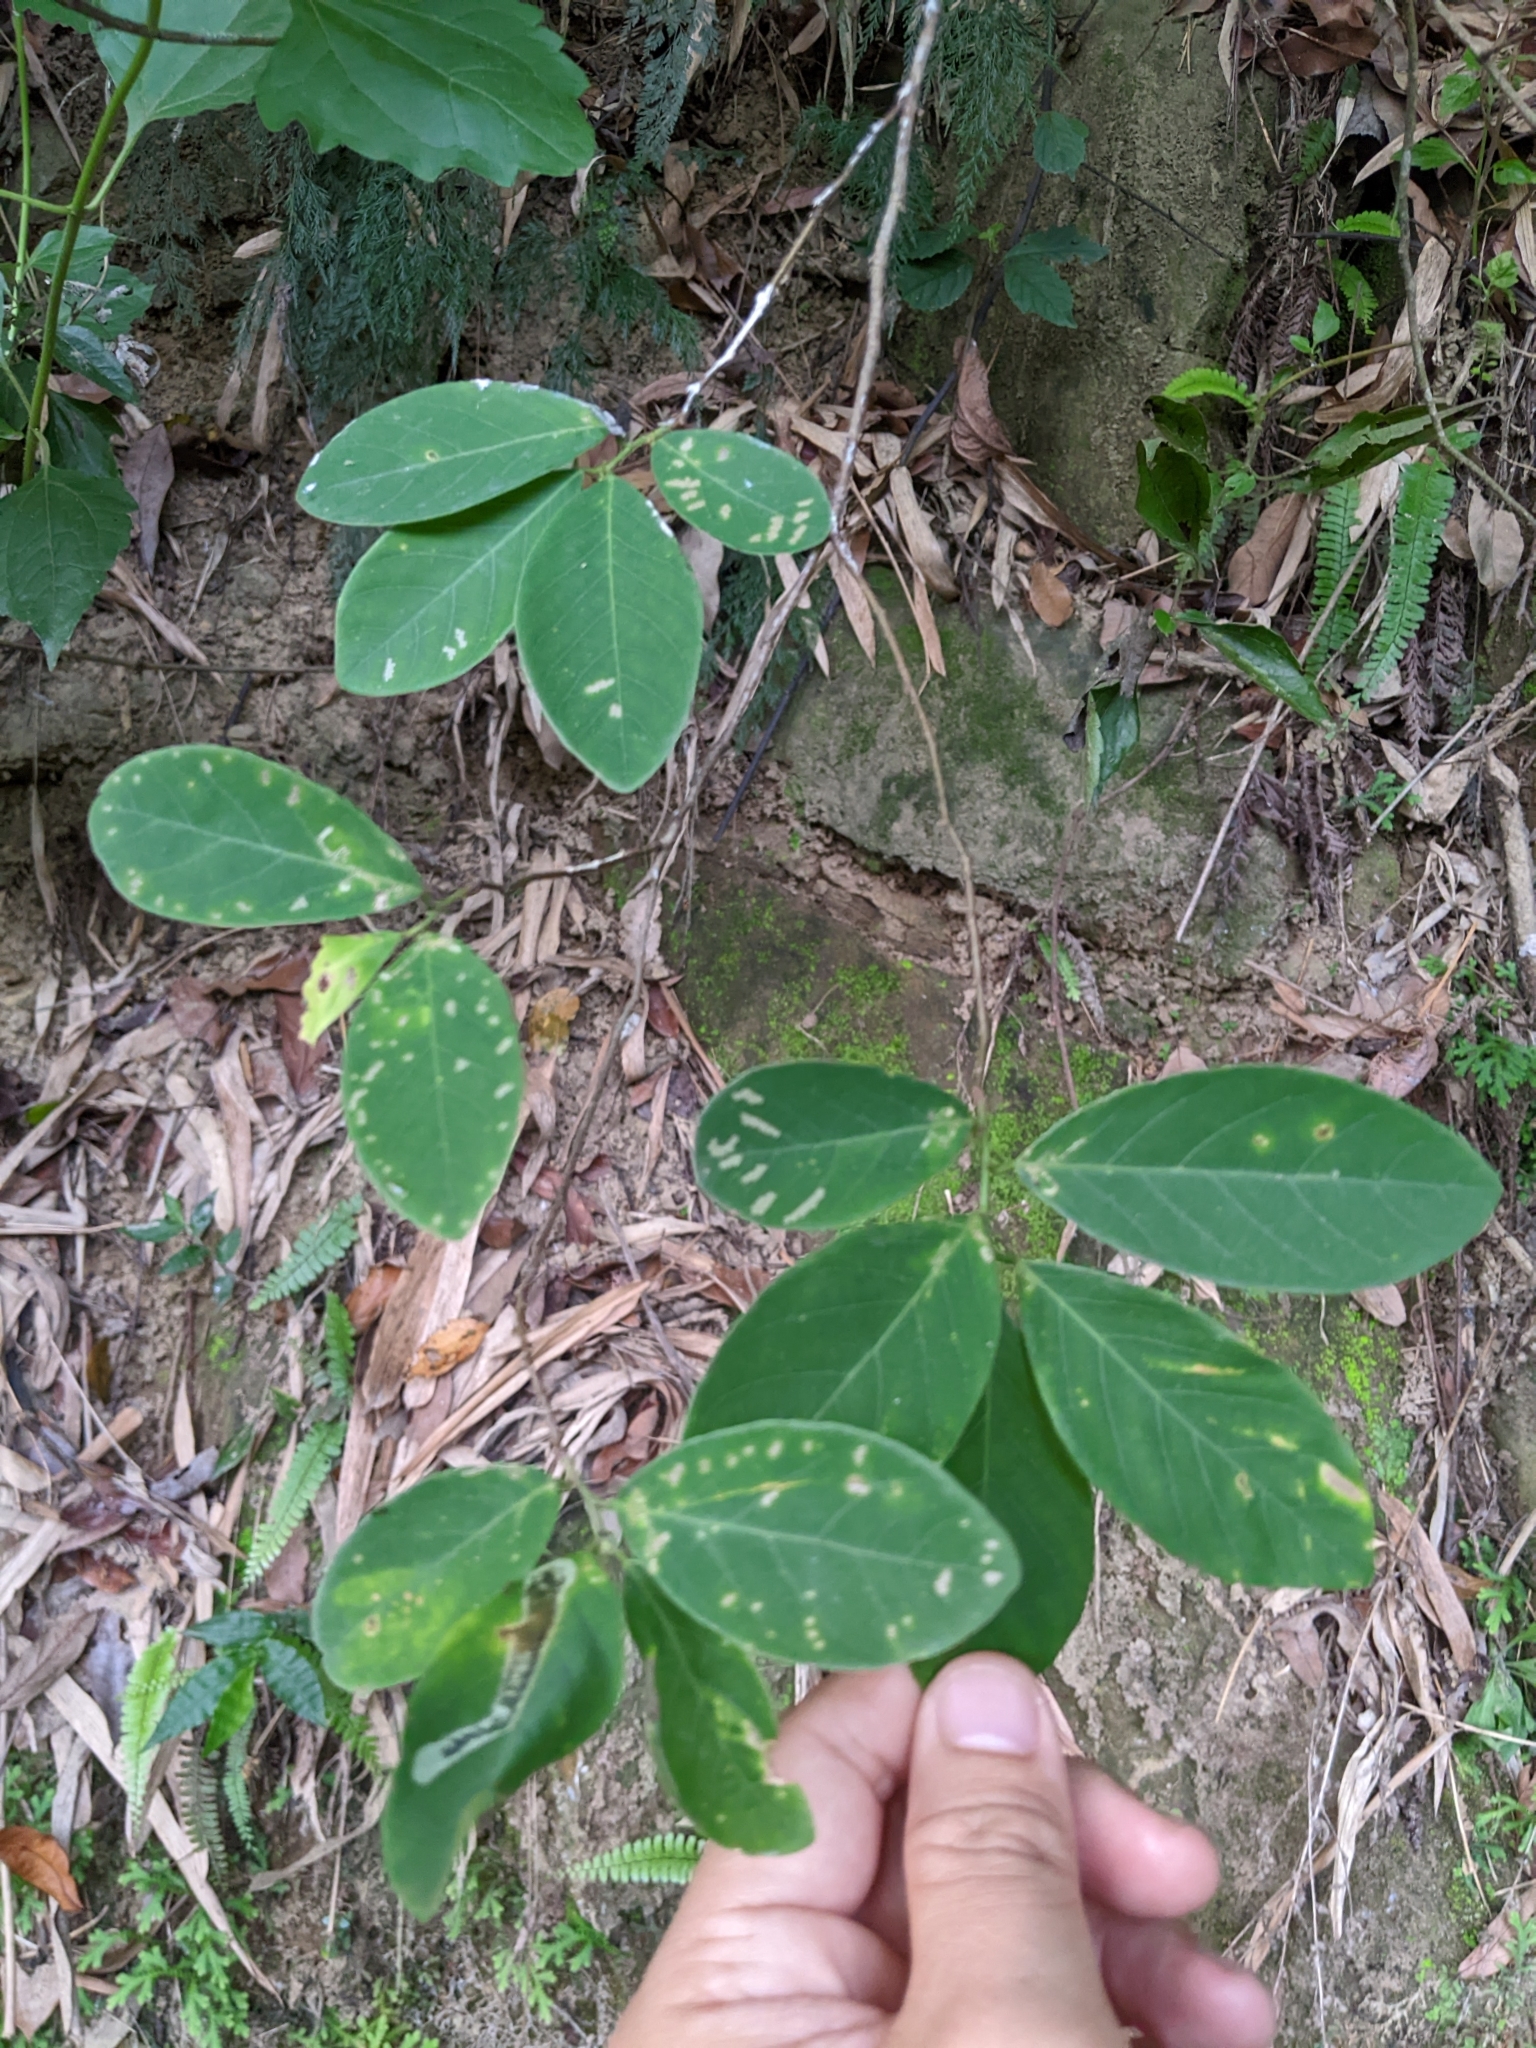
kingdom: Plantae
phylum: Tracheophyta
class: Magnoliopsida
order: Malpighiales
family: Phyllanthaceae
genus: Bridelia
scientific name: Bridelia tomentosa
